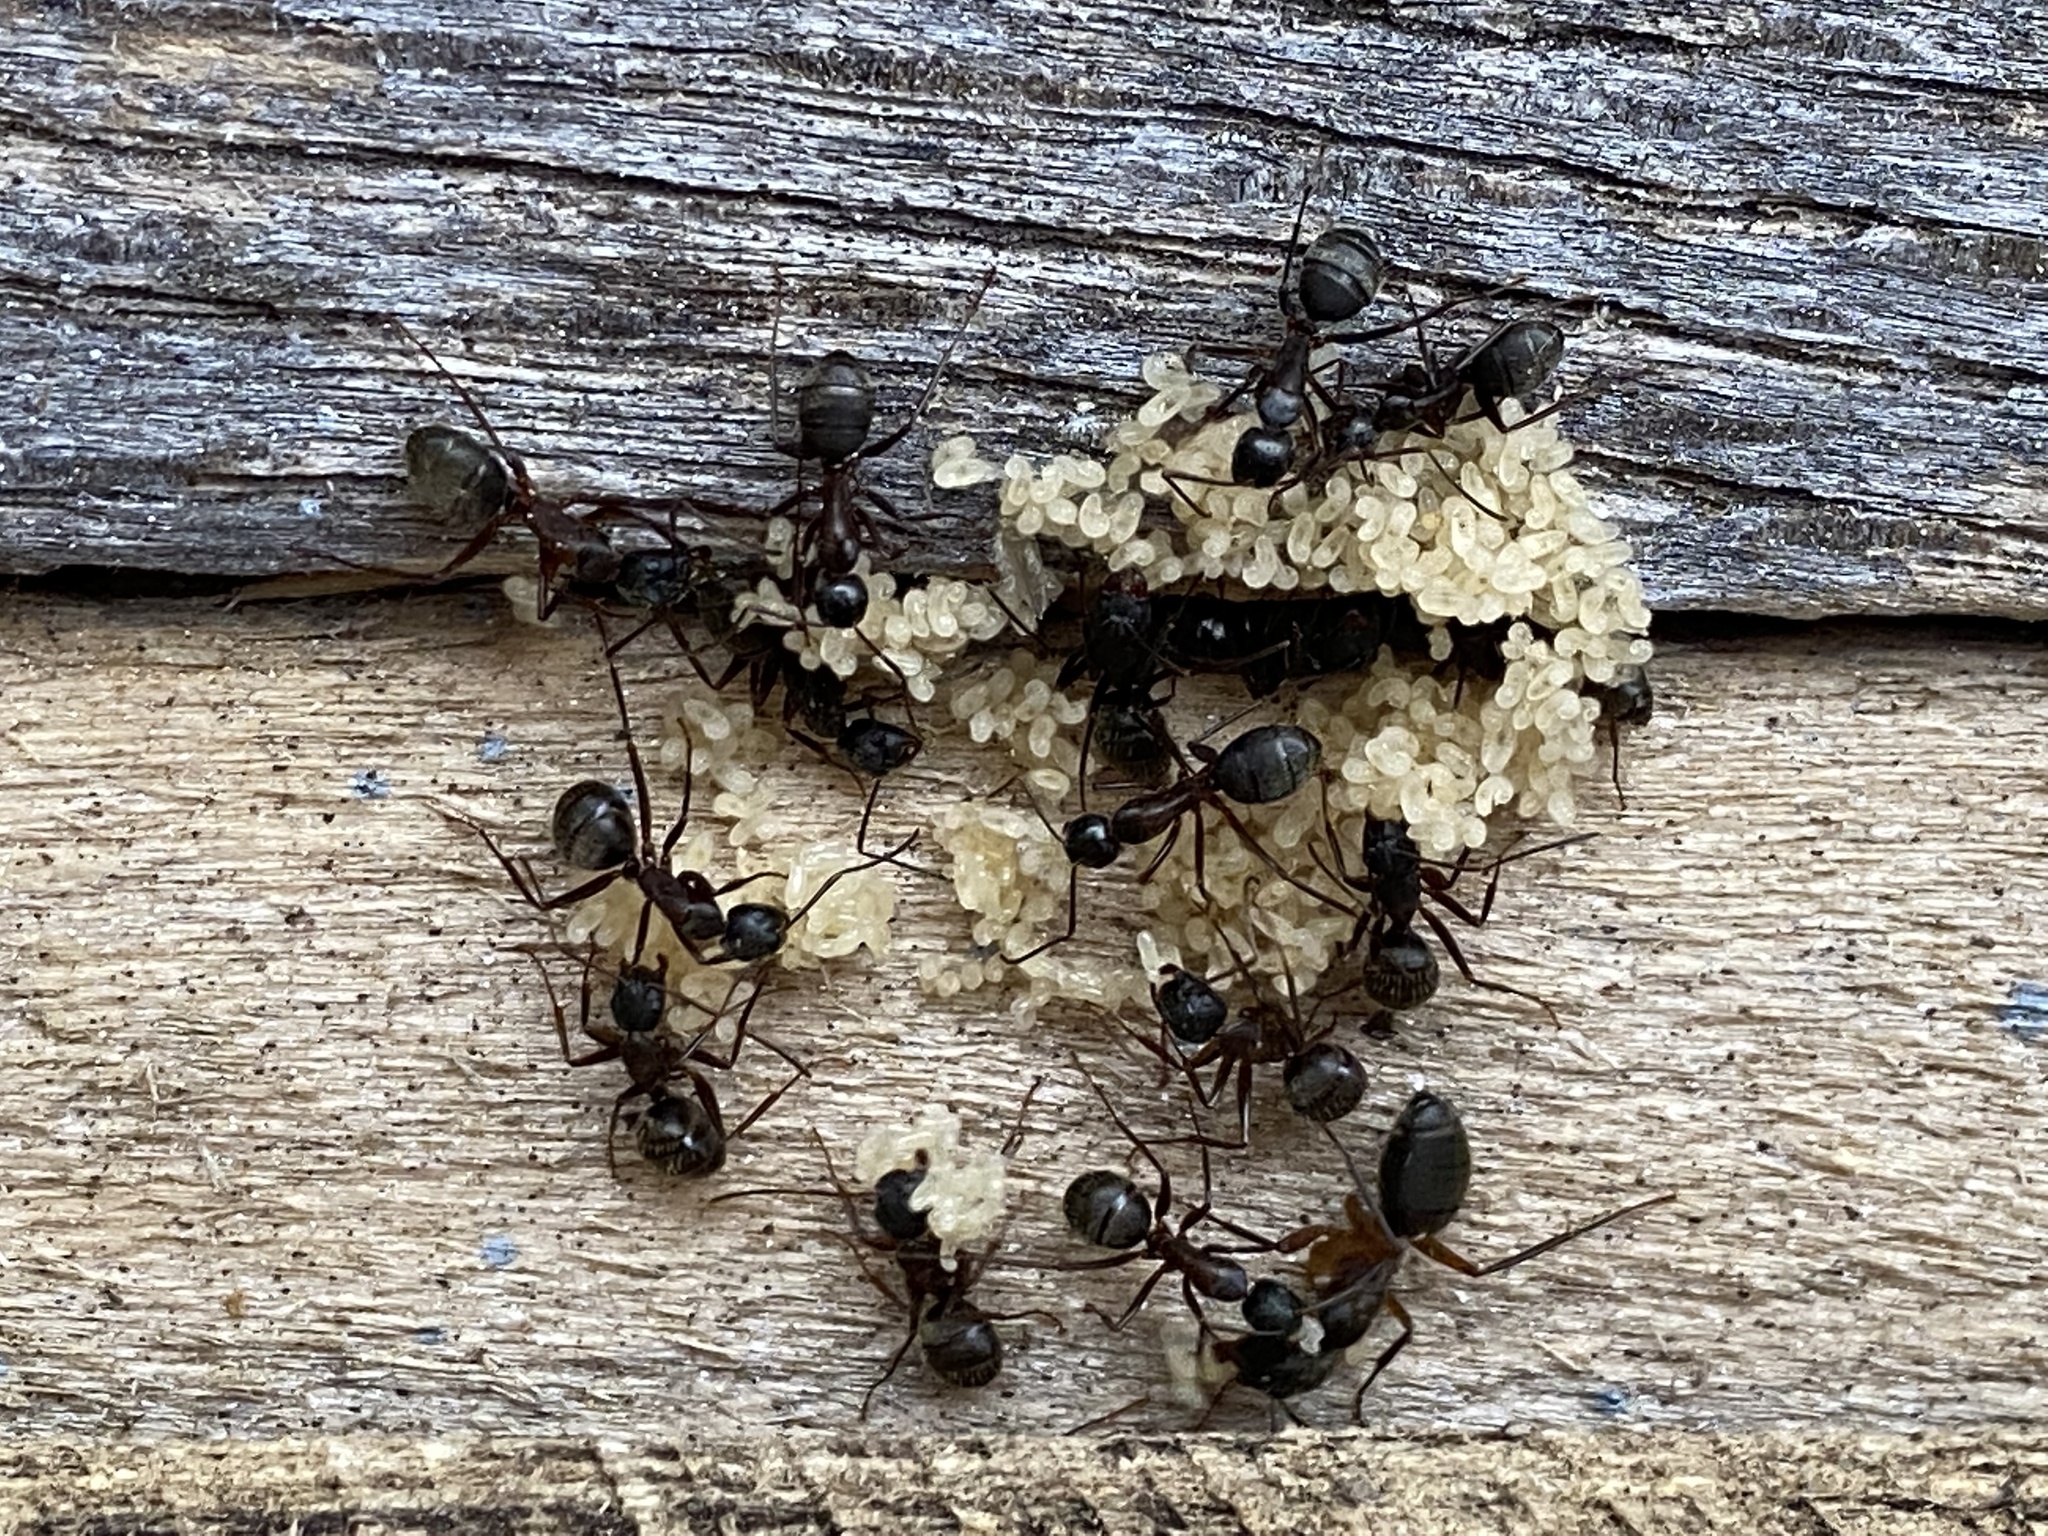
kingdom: Animalia
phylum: Arthropoda
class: Insecta
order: Hymenoptera
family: Formicidae
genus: Camponotus
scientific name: Camponotus chromaiodes
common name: Red carpenter ant
